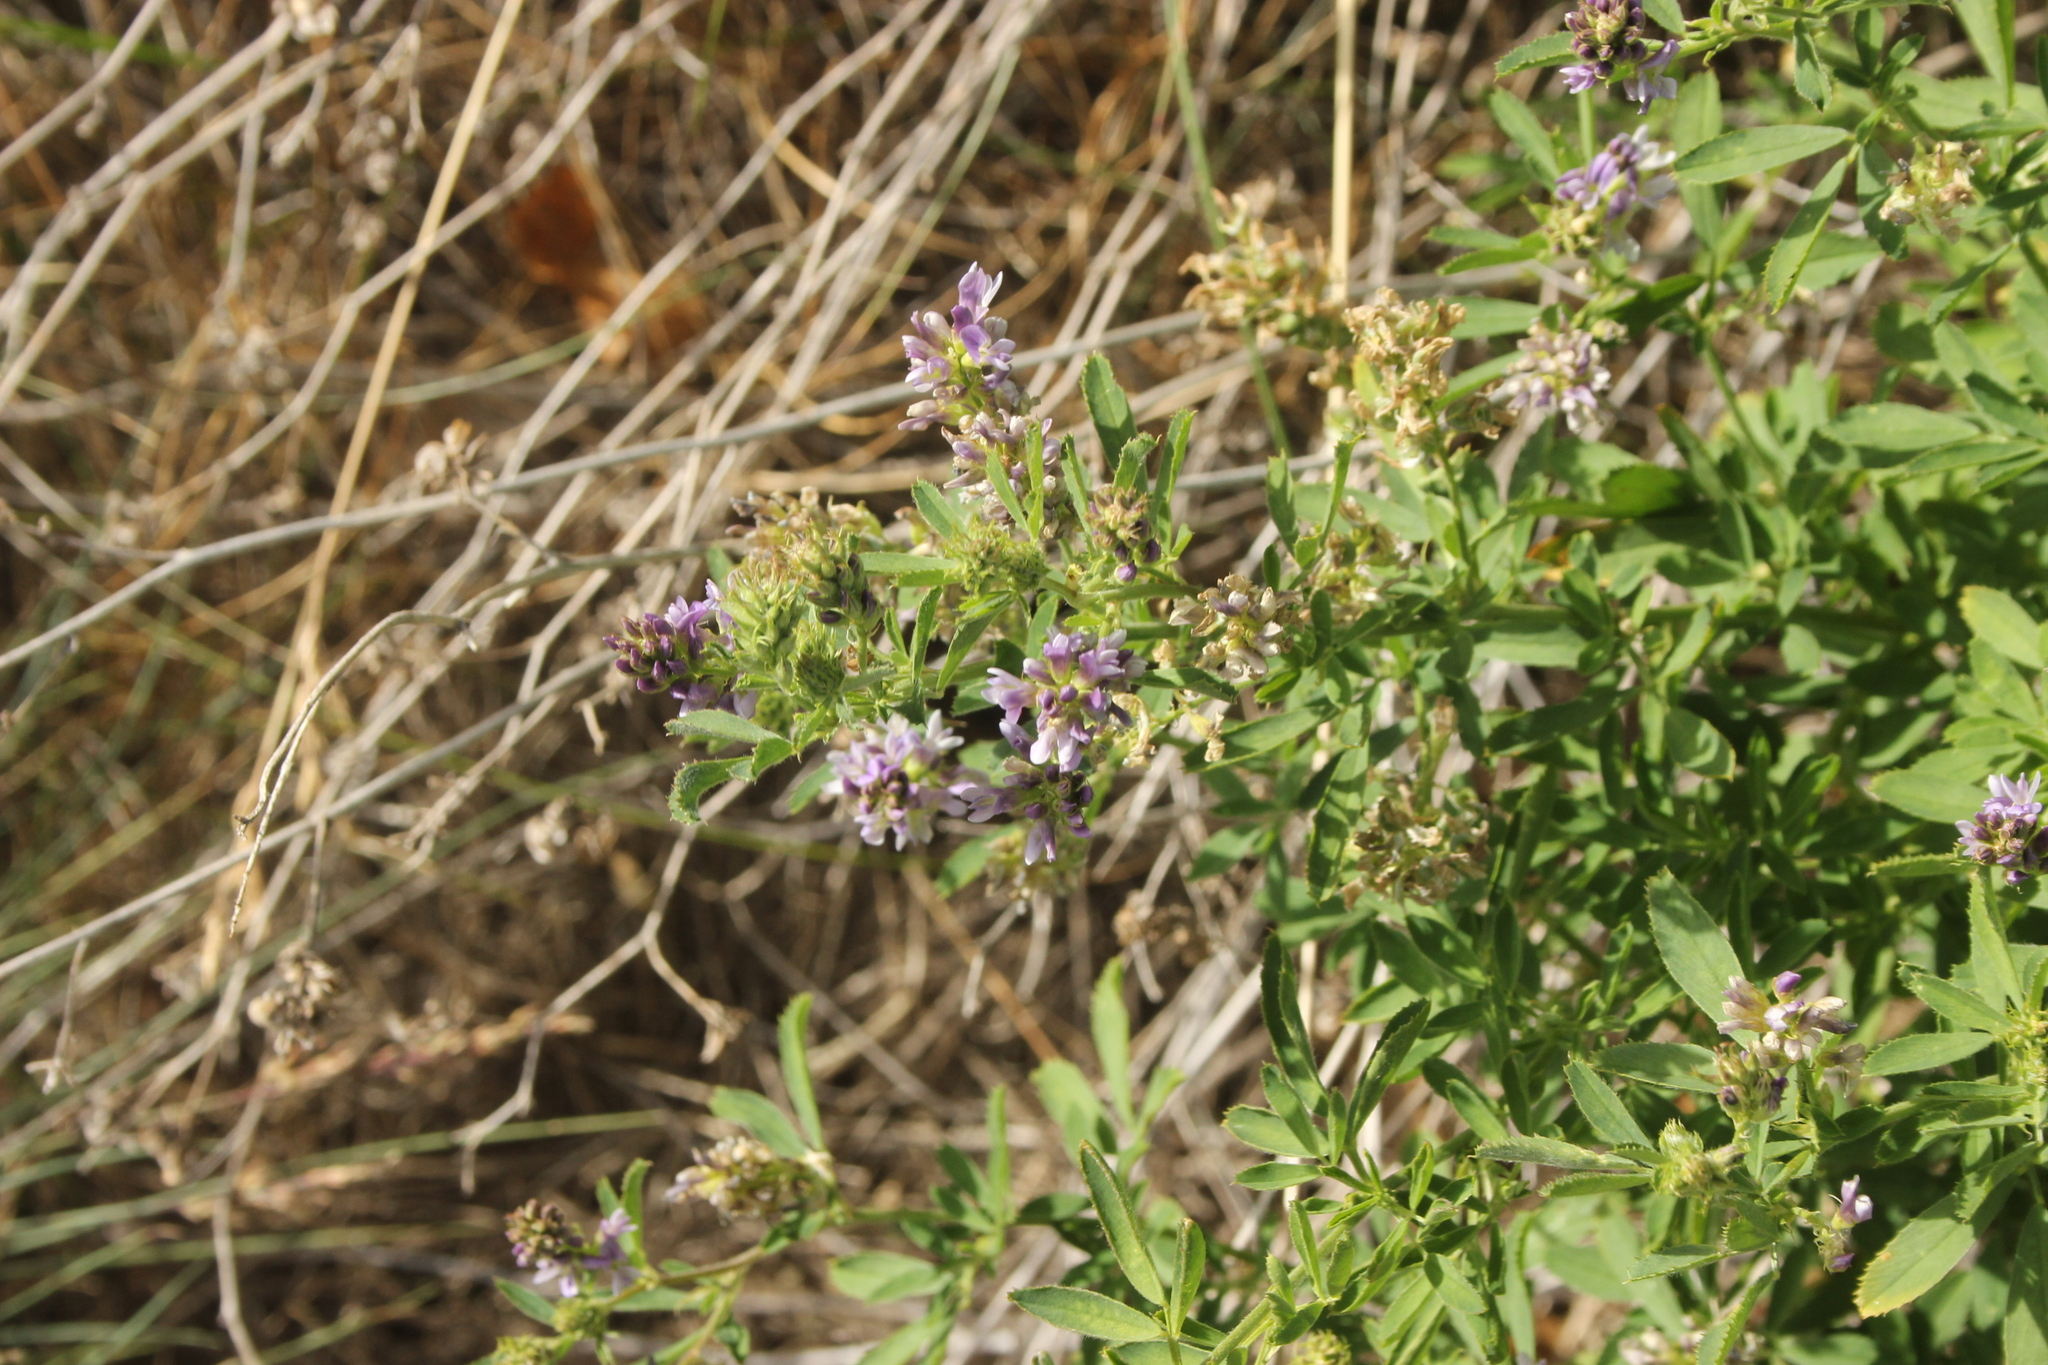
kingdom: Plantae
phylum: Tracheophyta
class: Magnoliopsida
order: Fabales
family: Fabaceae
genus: Medicago
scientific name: Medicago sativa
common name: Alfalfa
